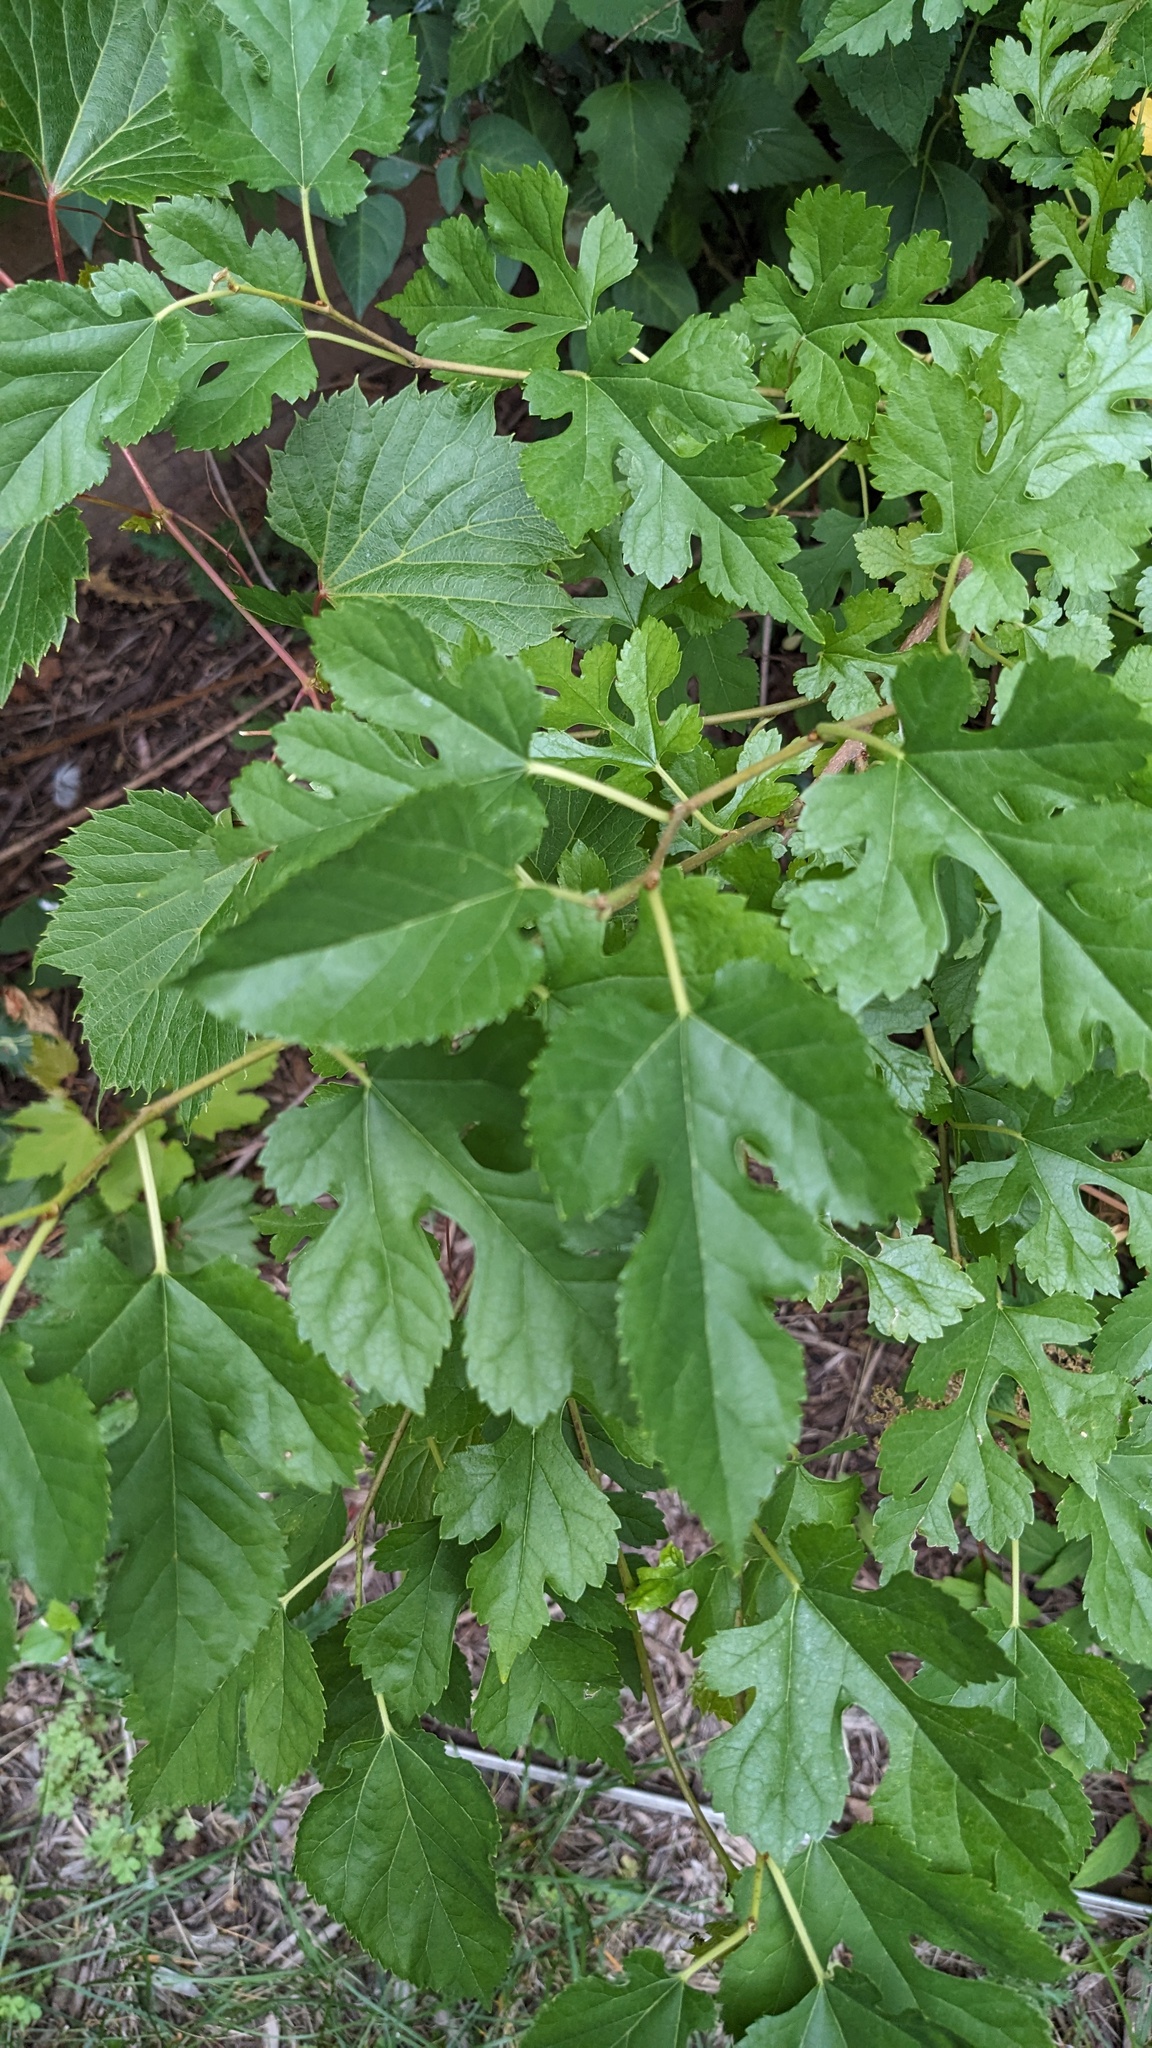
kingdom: Plantae
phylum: Tracheophyta
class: Magnoliopsida
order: Rosales
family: Moraceae
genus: Morus
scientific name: Morus alba
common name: White mulberry
